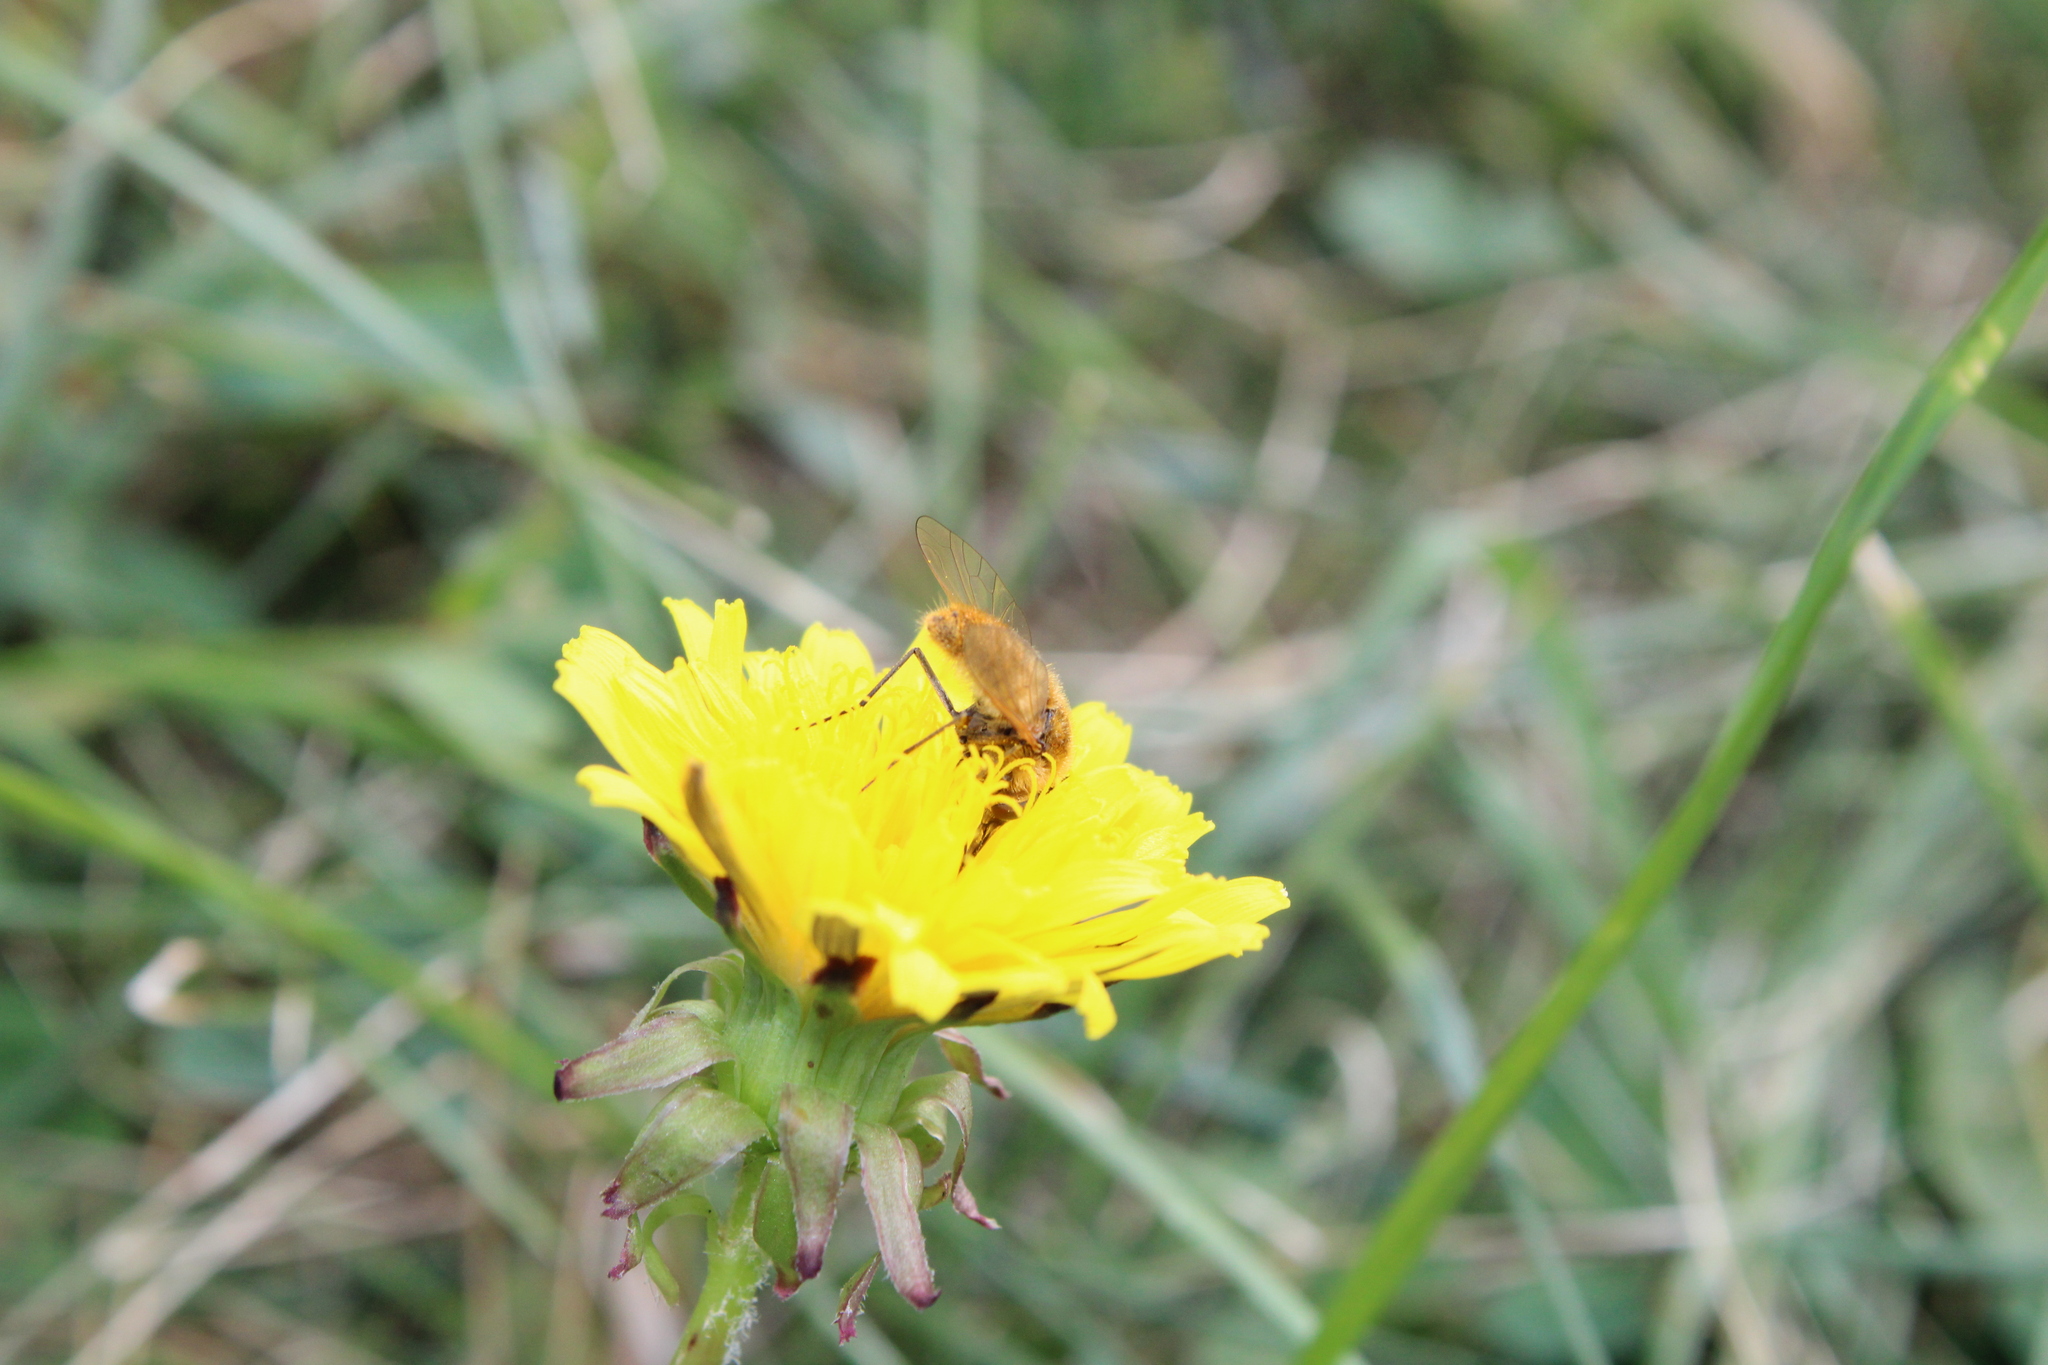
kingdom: Animalia
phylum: Arthropoda
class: Insecta
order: Diptera
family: Bombyliidae
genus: Sparnopolius
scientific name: Sparnopolius confusus
